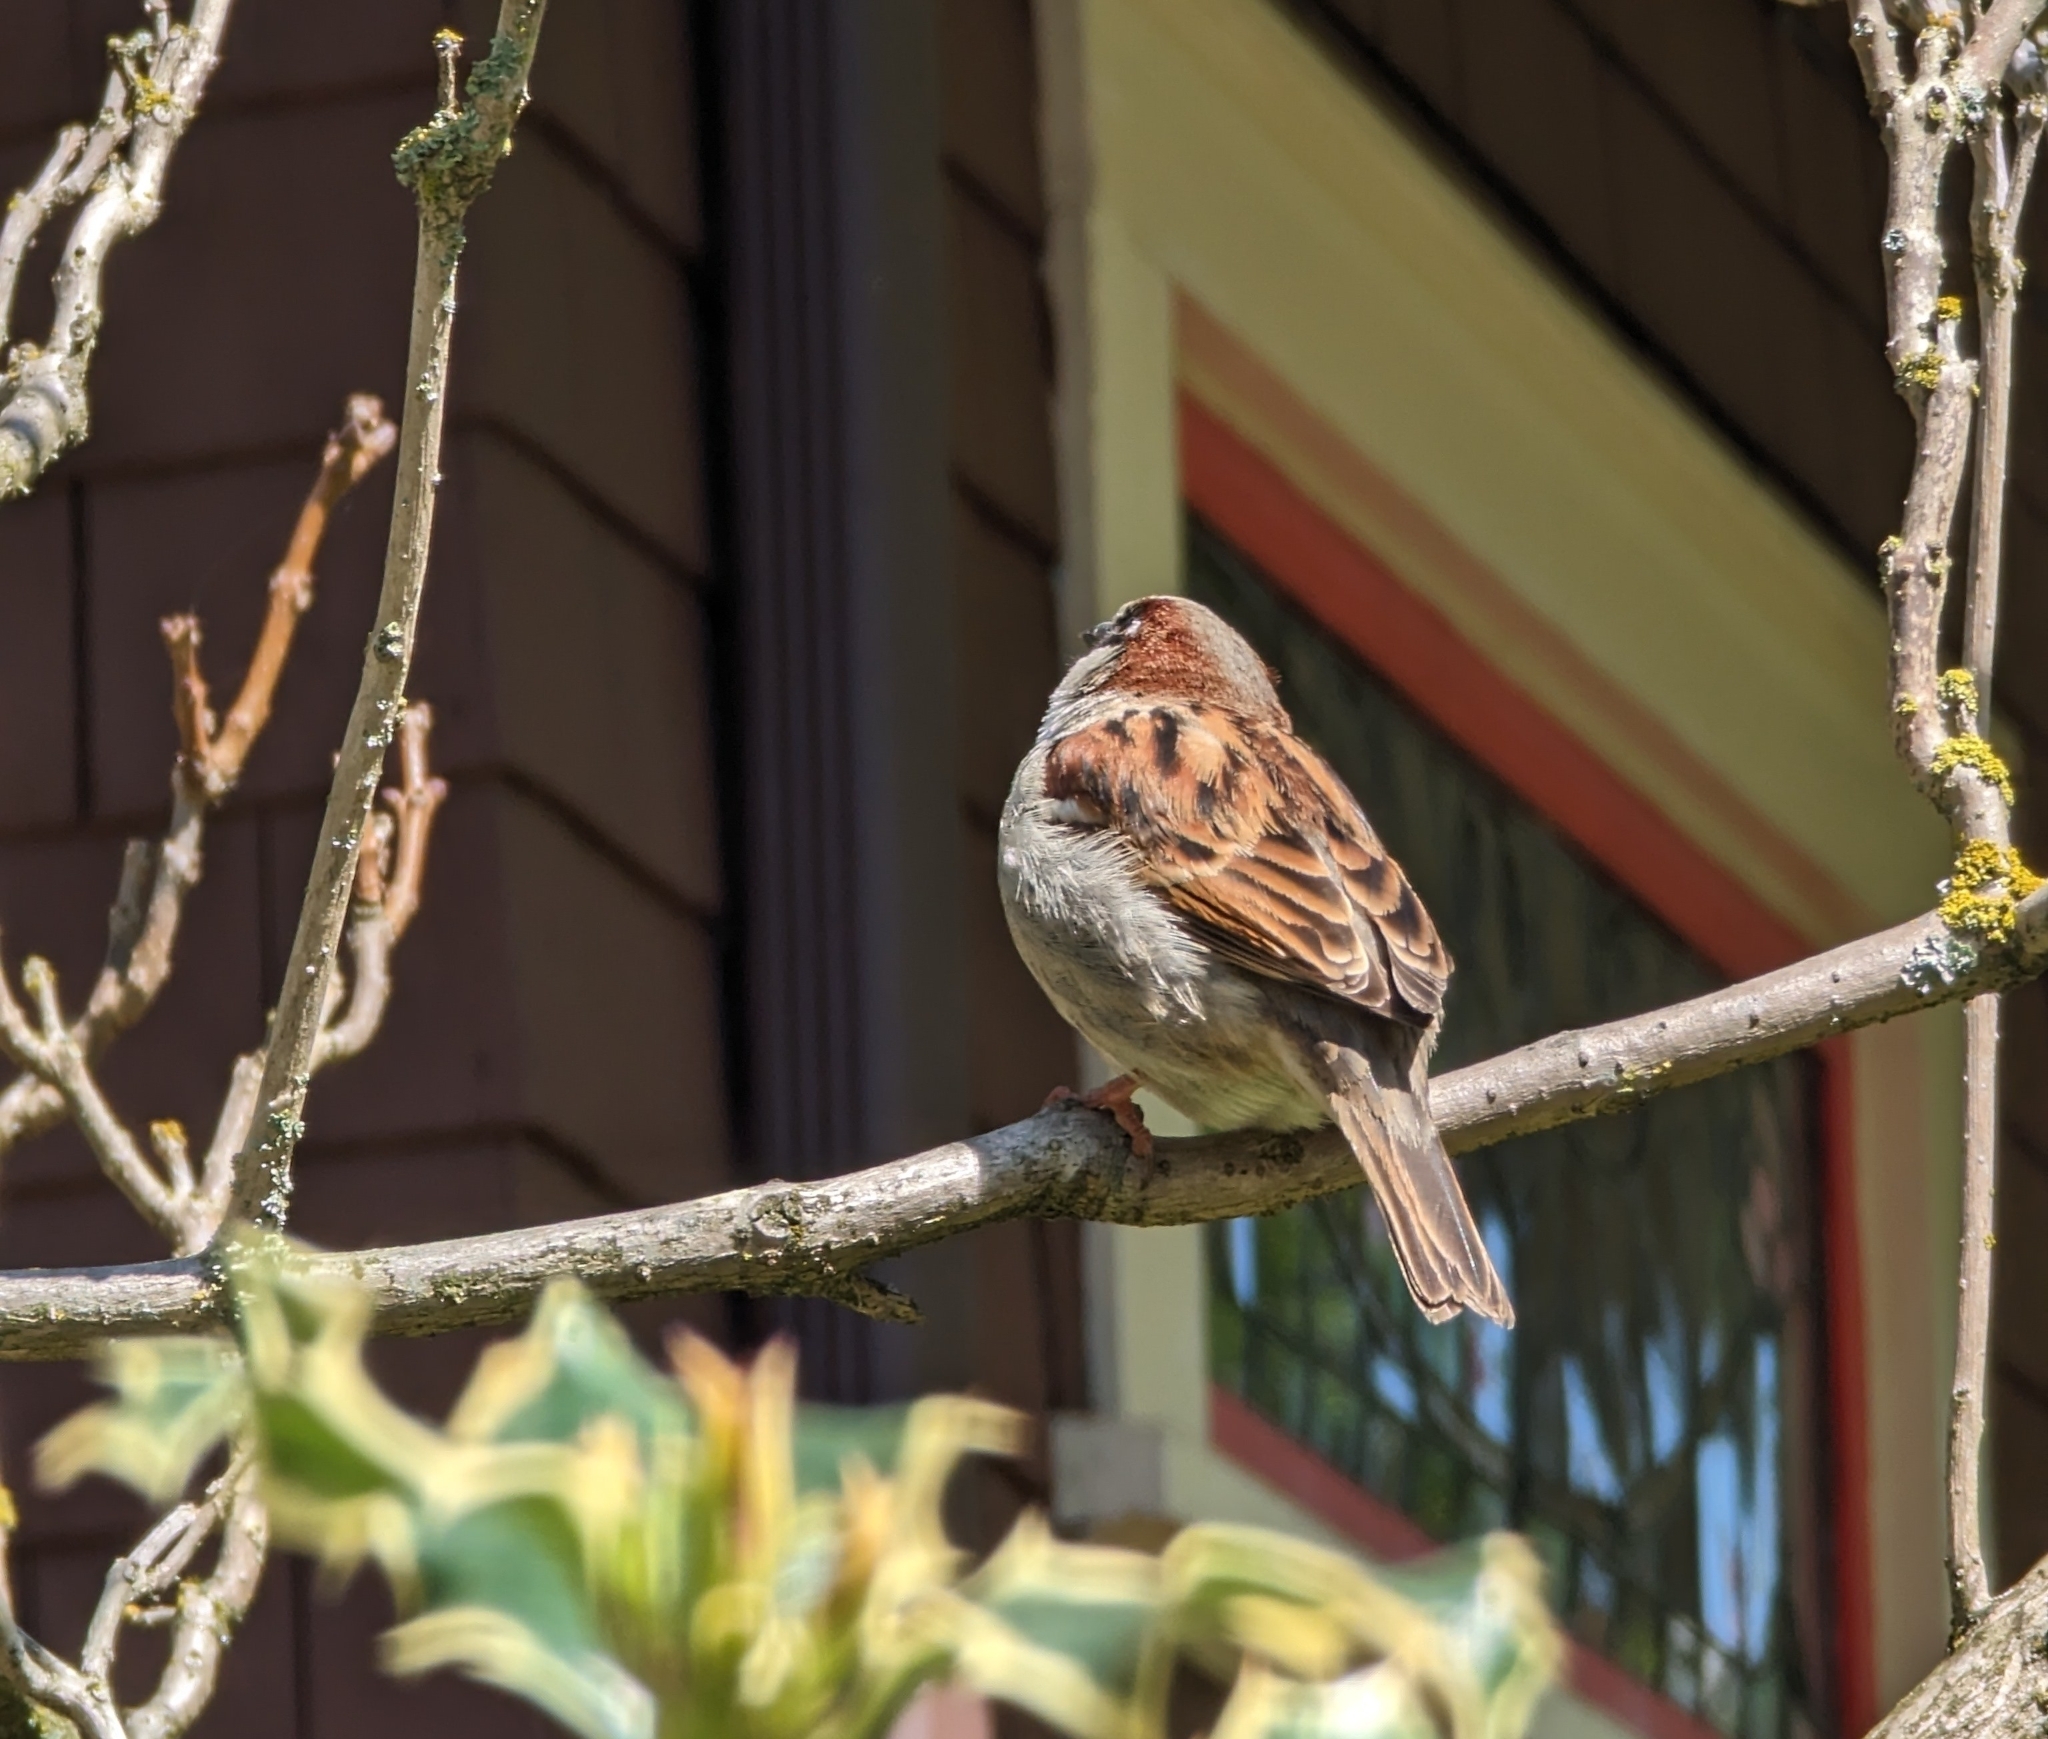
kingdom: Animalia
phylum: Chordata
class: Aves
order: Passeriformes
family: Passeridae
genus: Passer
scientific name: Passer domesticus
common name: House sparrow
